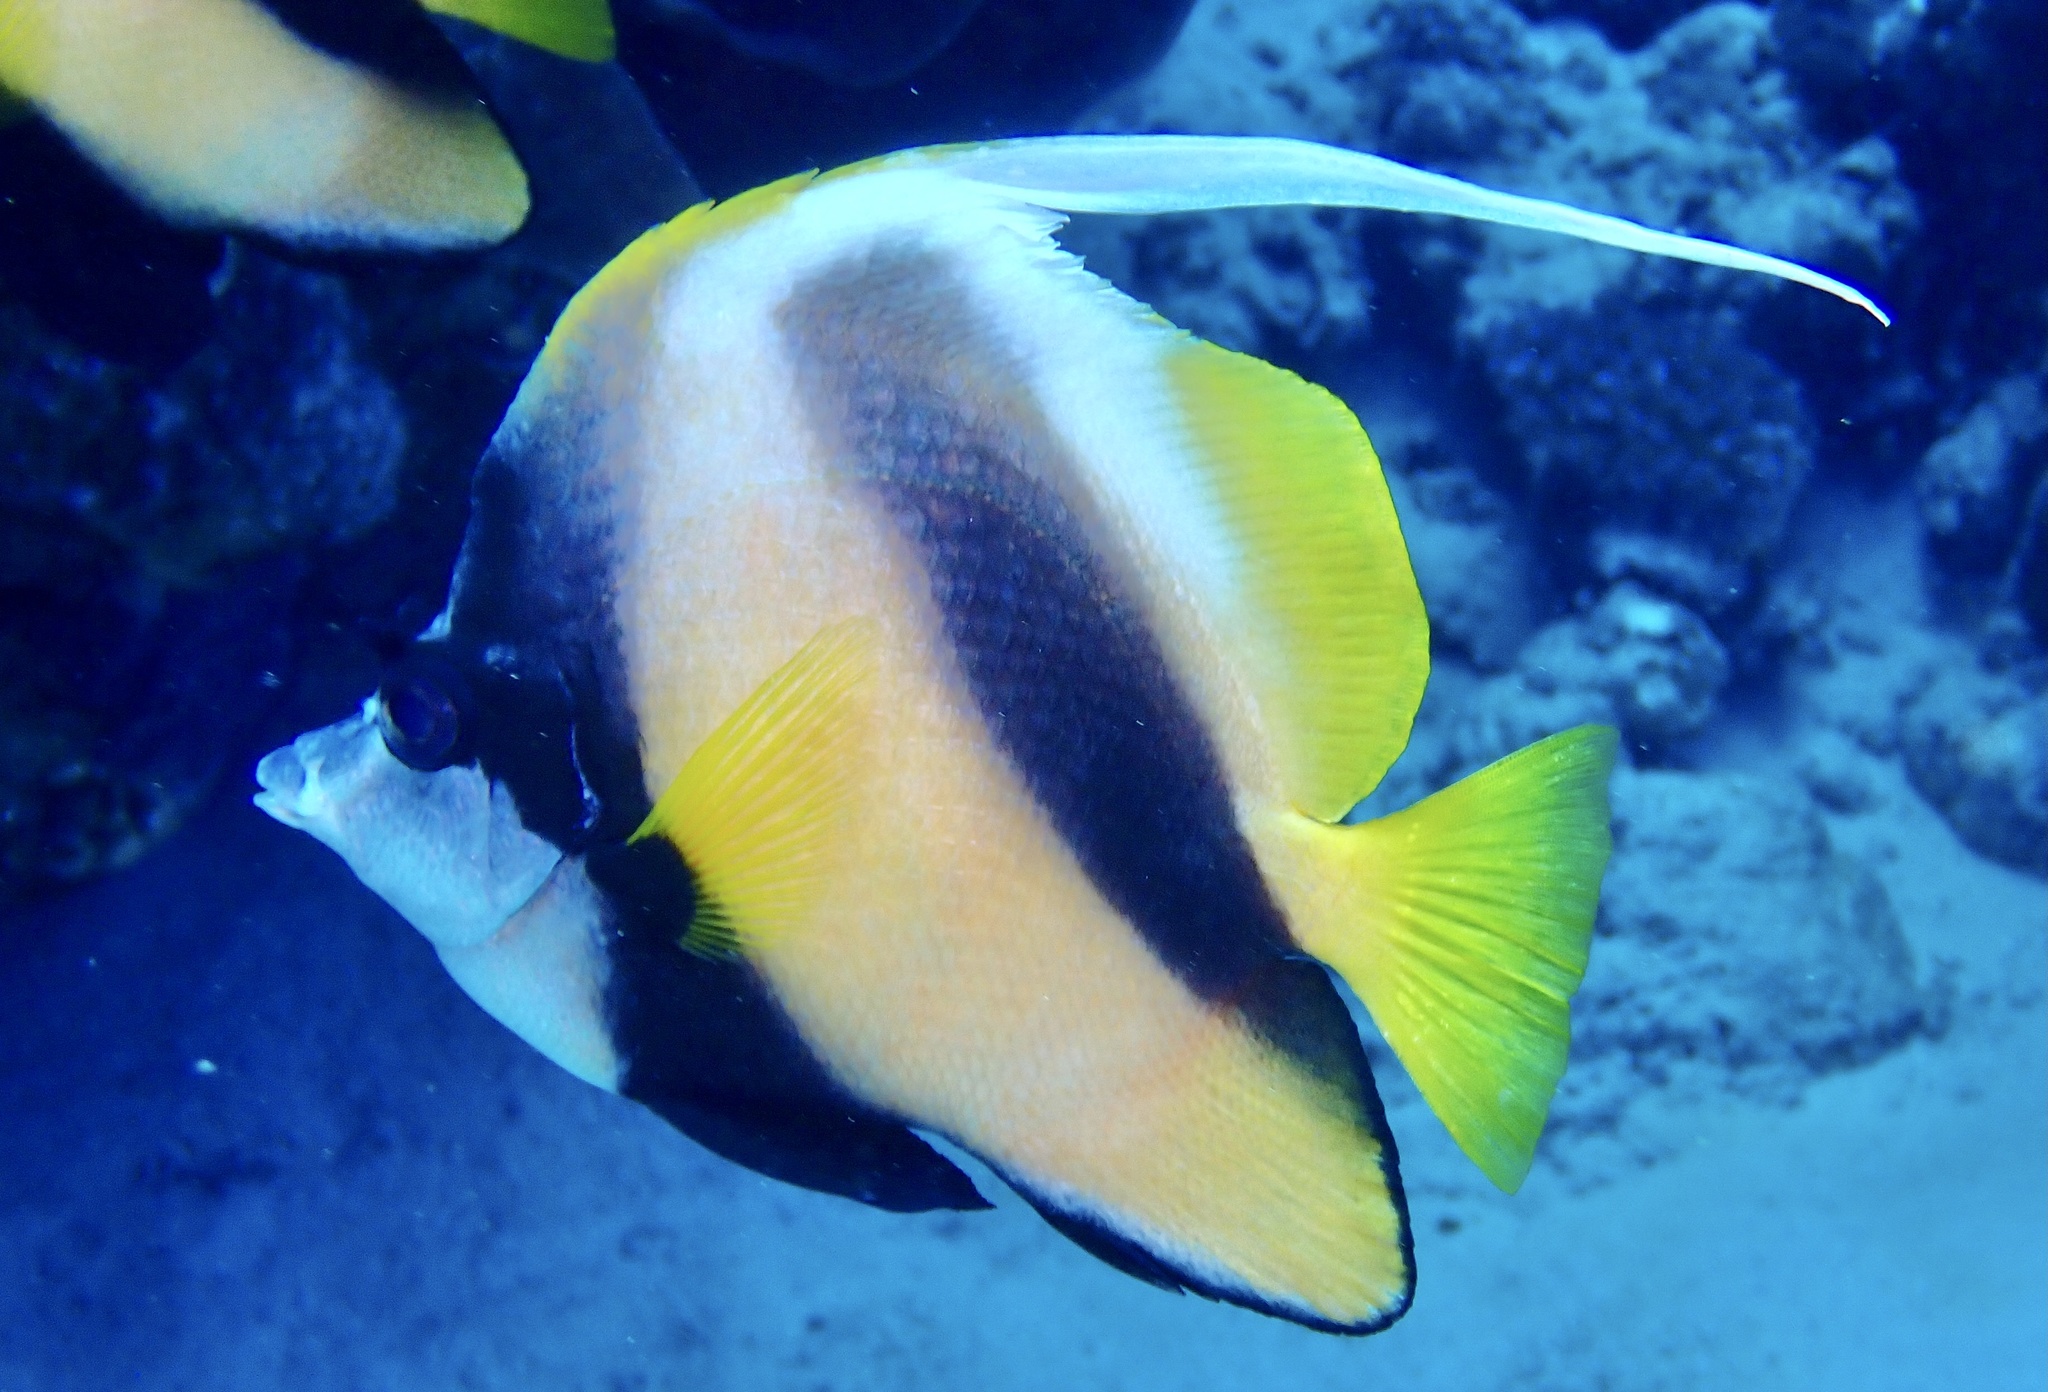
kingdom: Animalia
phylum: Chordata
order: Perciformes
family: Chaetodontidae
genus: Heniochus
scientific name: Heniochus intermedius
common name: Red sea bannerfish
